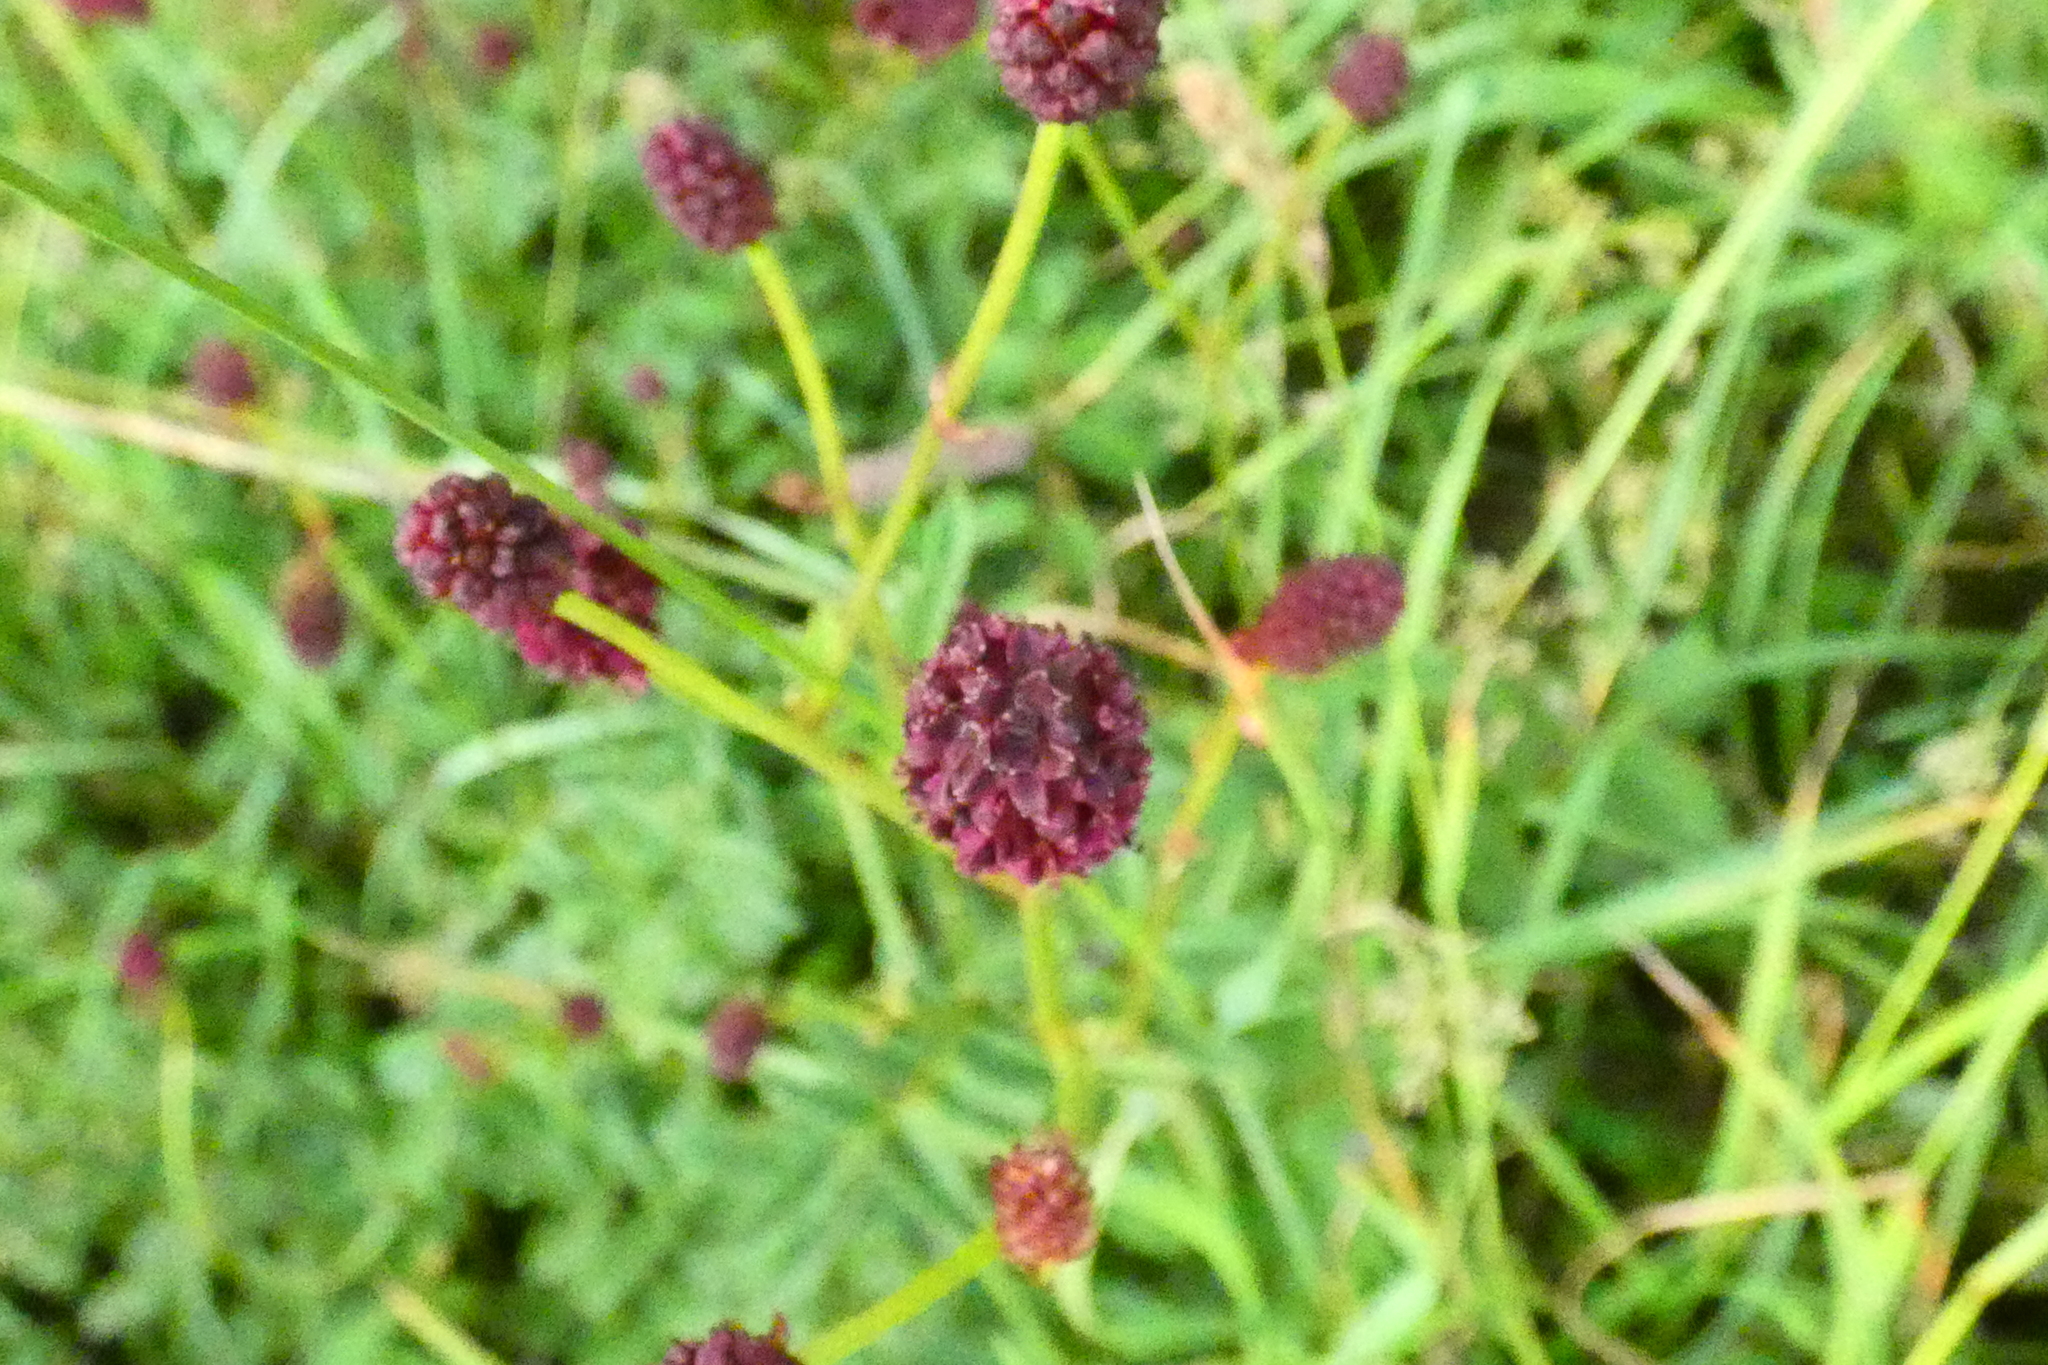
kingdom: Plantae
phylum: Tracheophyta
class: Magnoliopsida
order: Rosales
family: Rosaceae
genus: Sanguisorba
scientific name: Sanguisorba officinalis
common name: Great burnet
